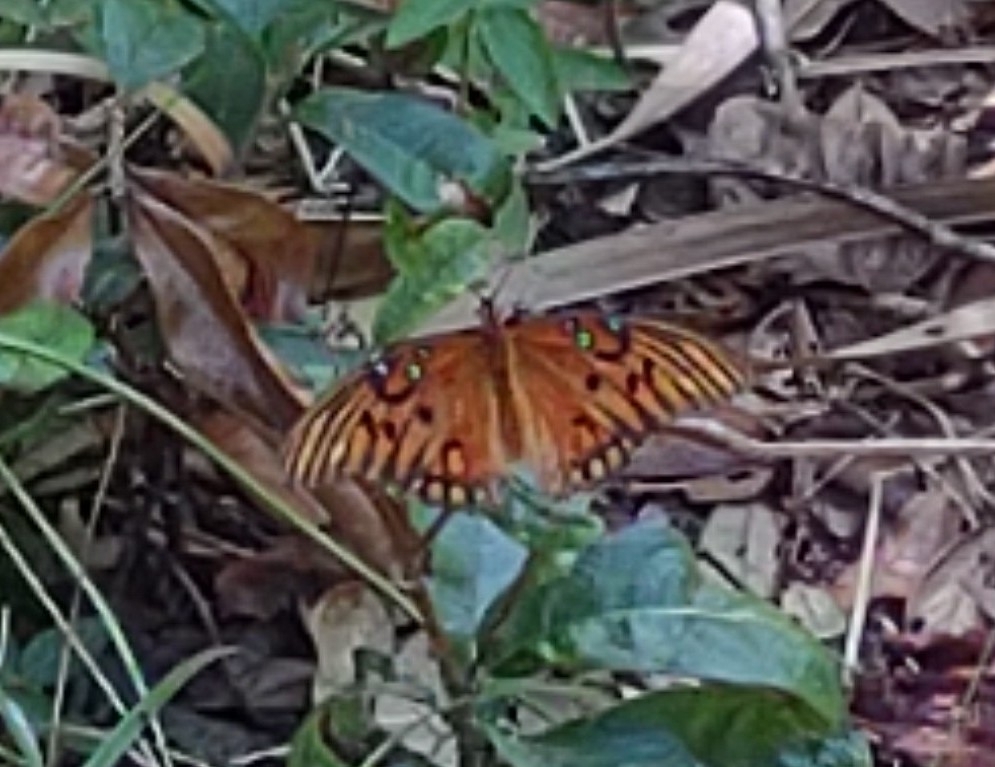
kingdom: Animalia
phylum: Arthropoda
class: Insecta
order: Lepidoptera
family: Nymphalidae
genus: Dione
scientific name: Dione vanillae
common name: Gulf fritillary
